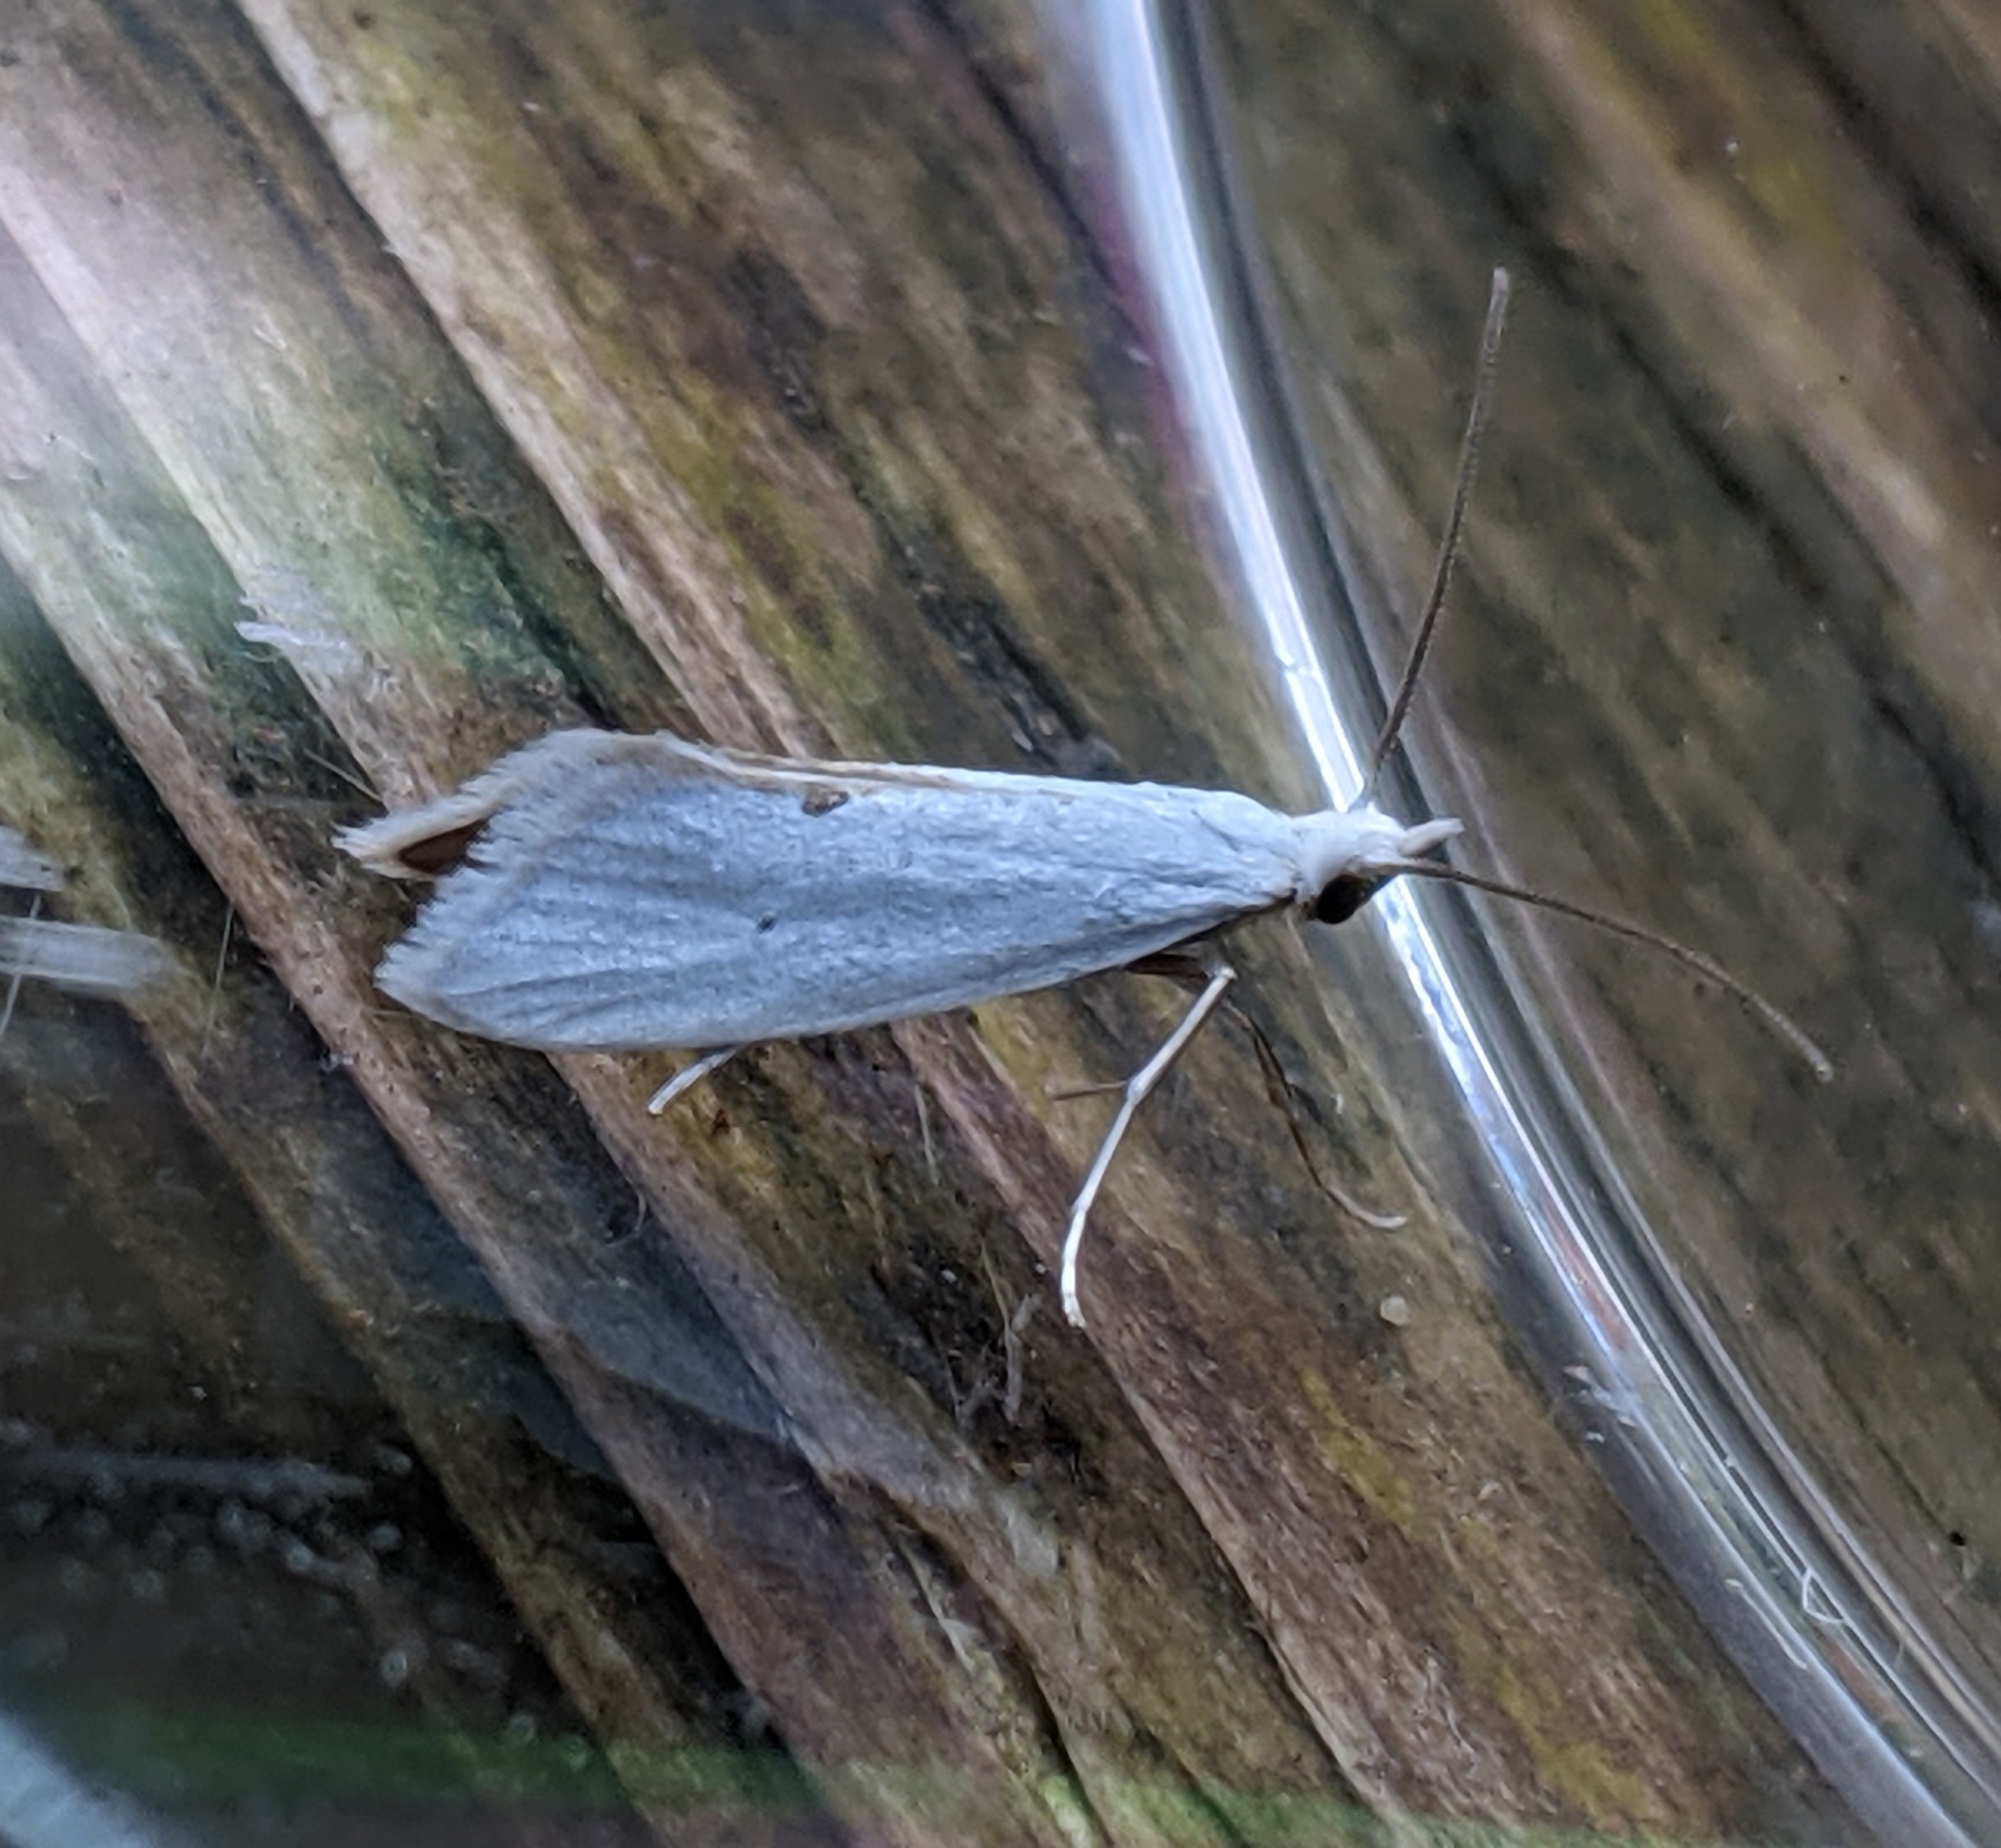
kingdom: Animalia
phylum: Arthropoda
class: Insecta
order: Lepidoptera
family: Yponomeutidae
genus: Eucalantica
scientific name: Eucalantica polita
